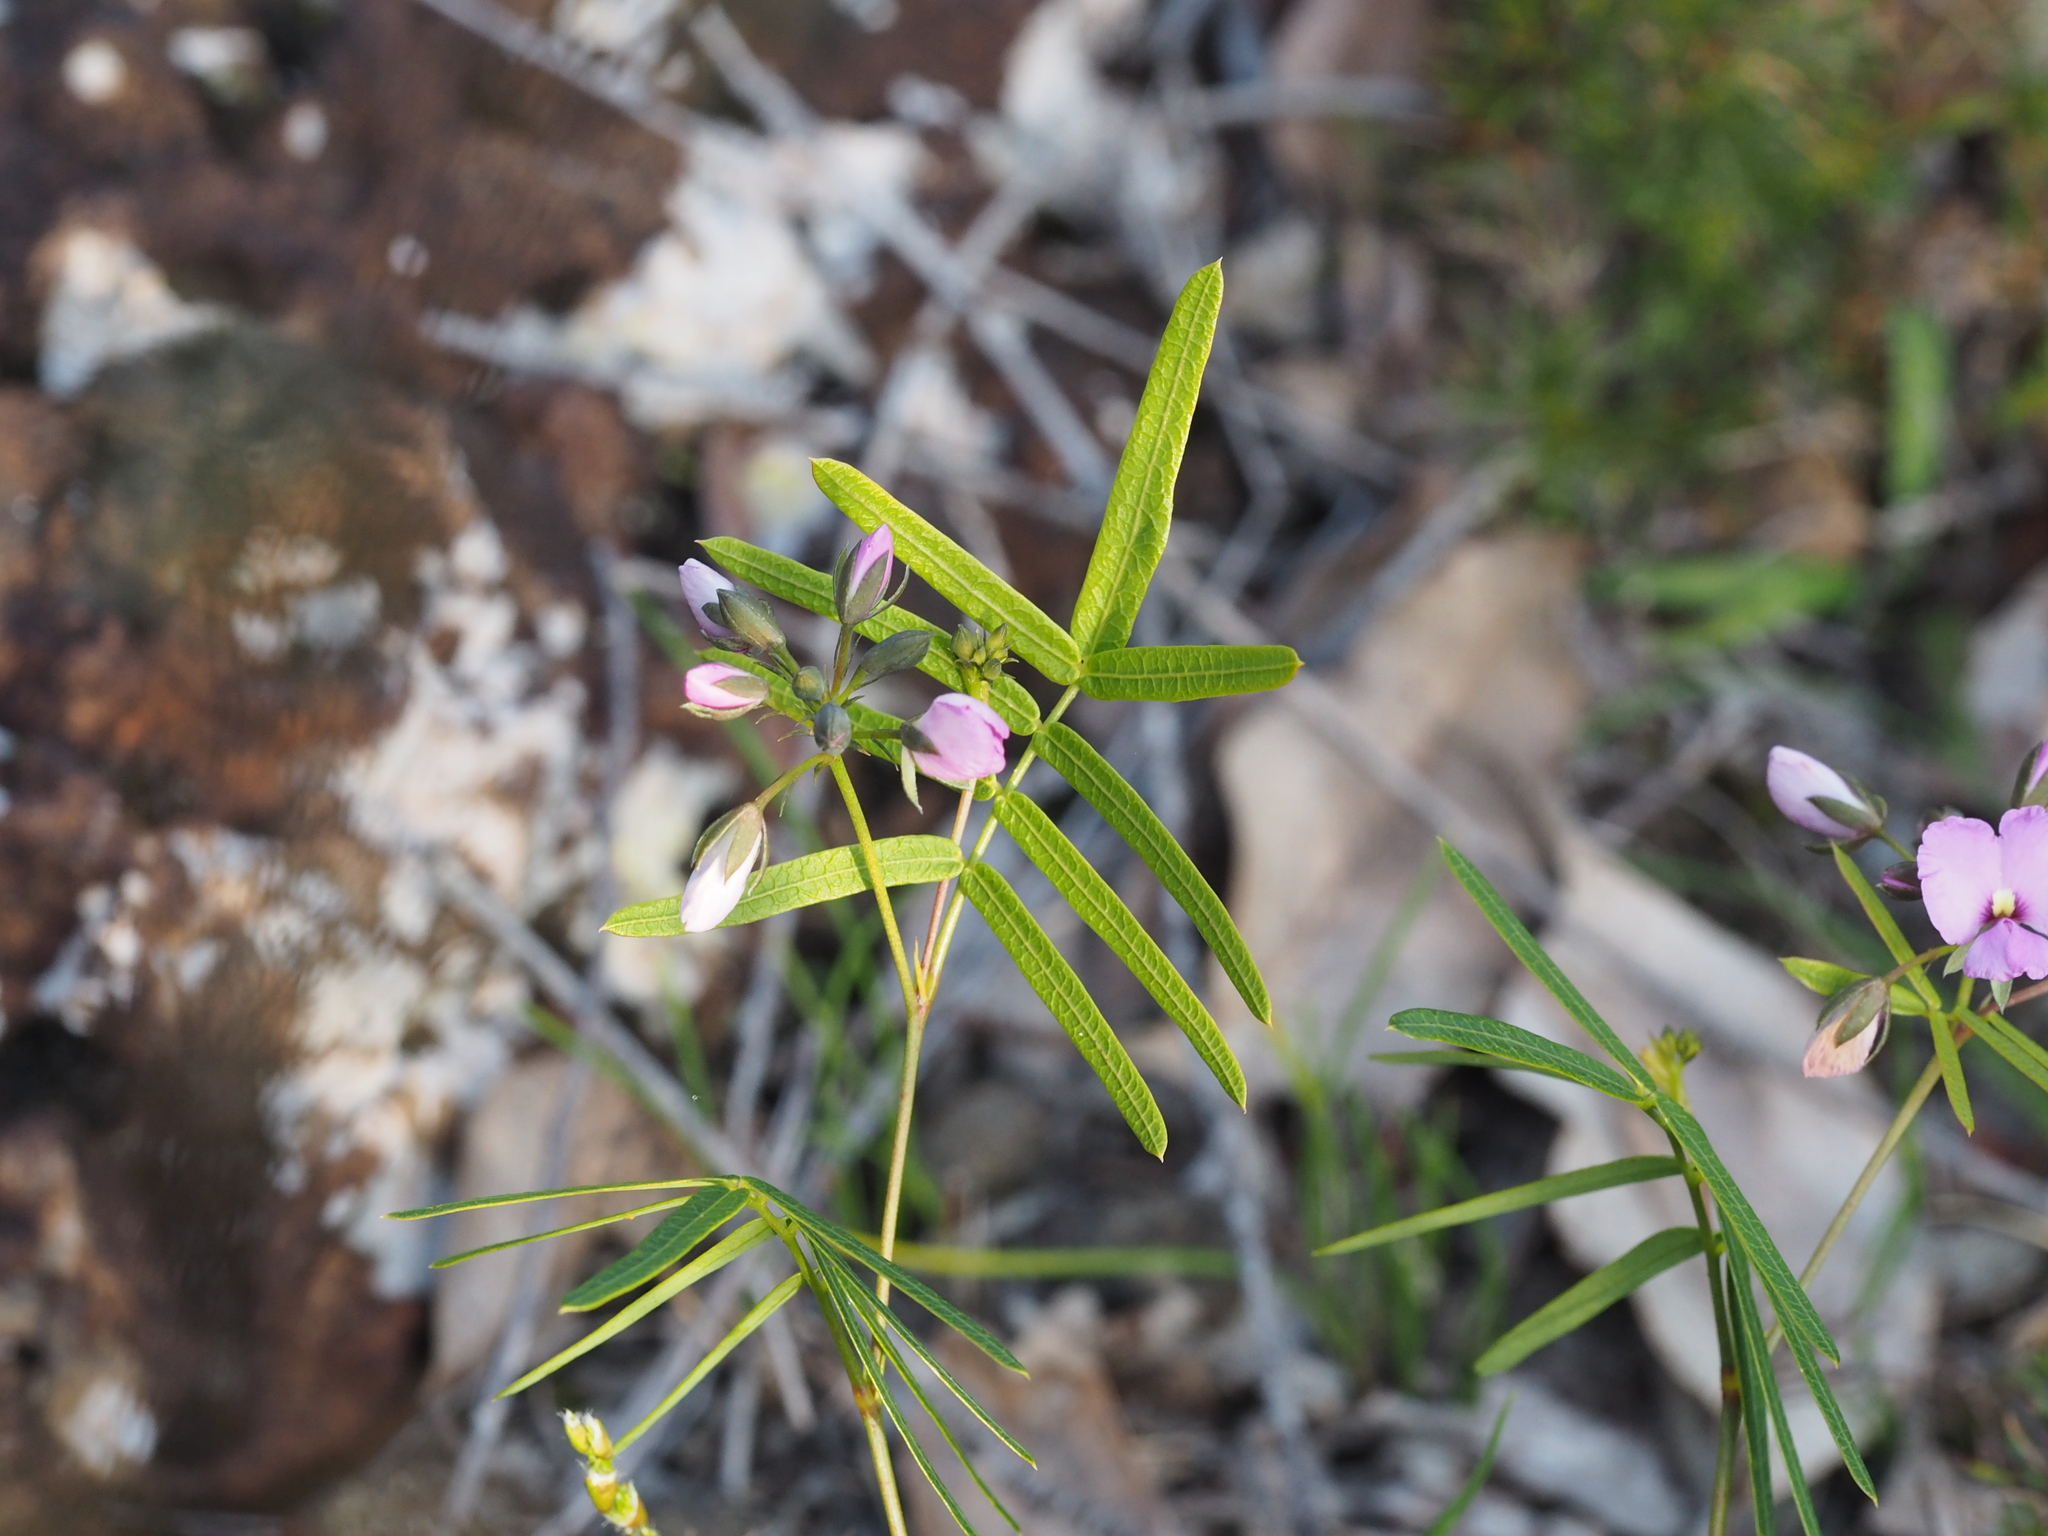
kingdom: Plantae
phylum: Tracheophyta
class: Magnoliopsida
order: Fabales
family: Fabaceae
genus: Gompholobium
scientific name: Gompholobium knightianum
